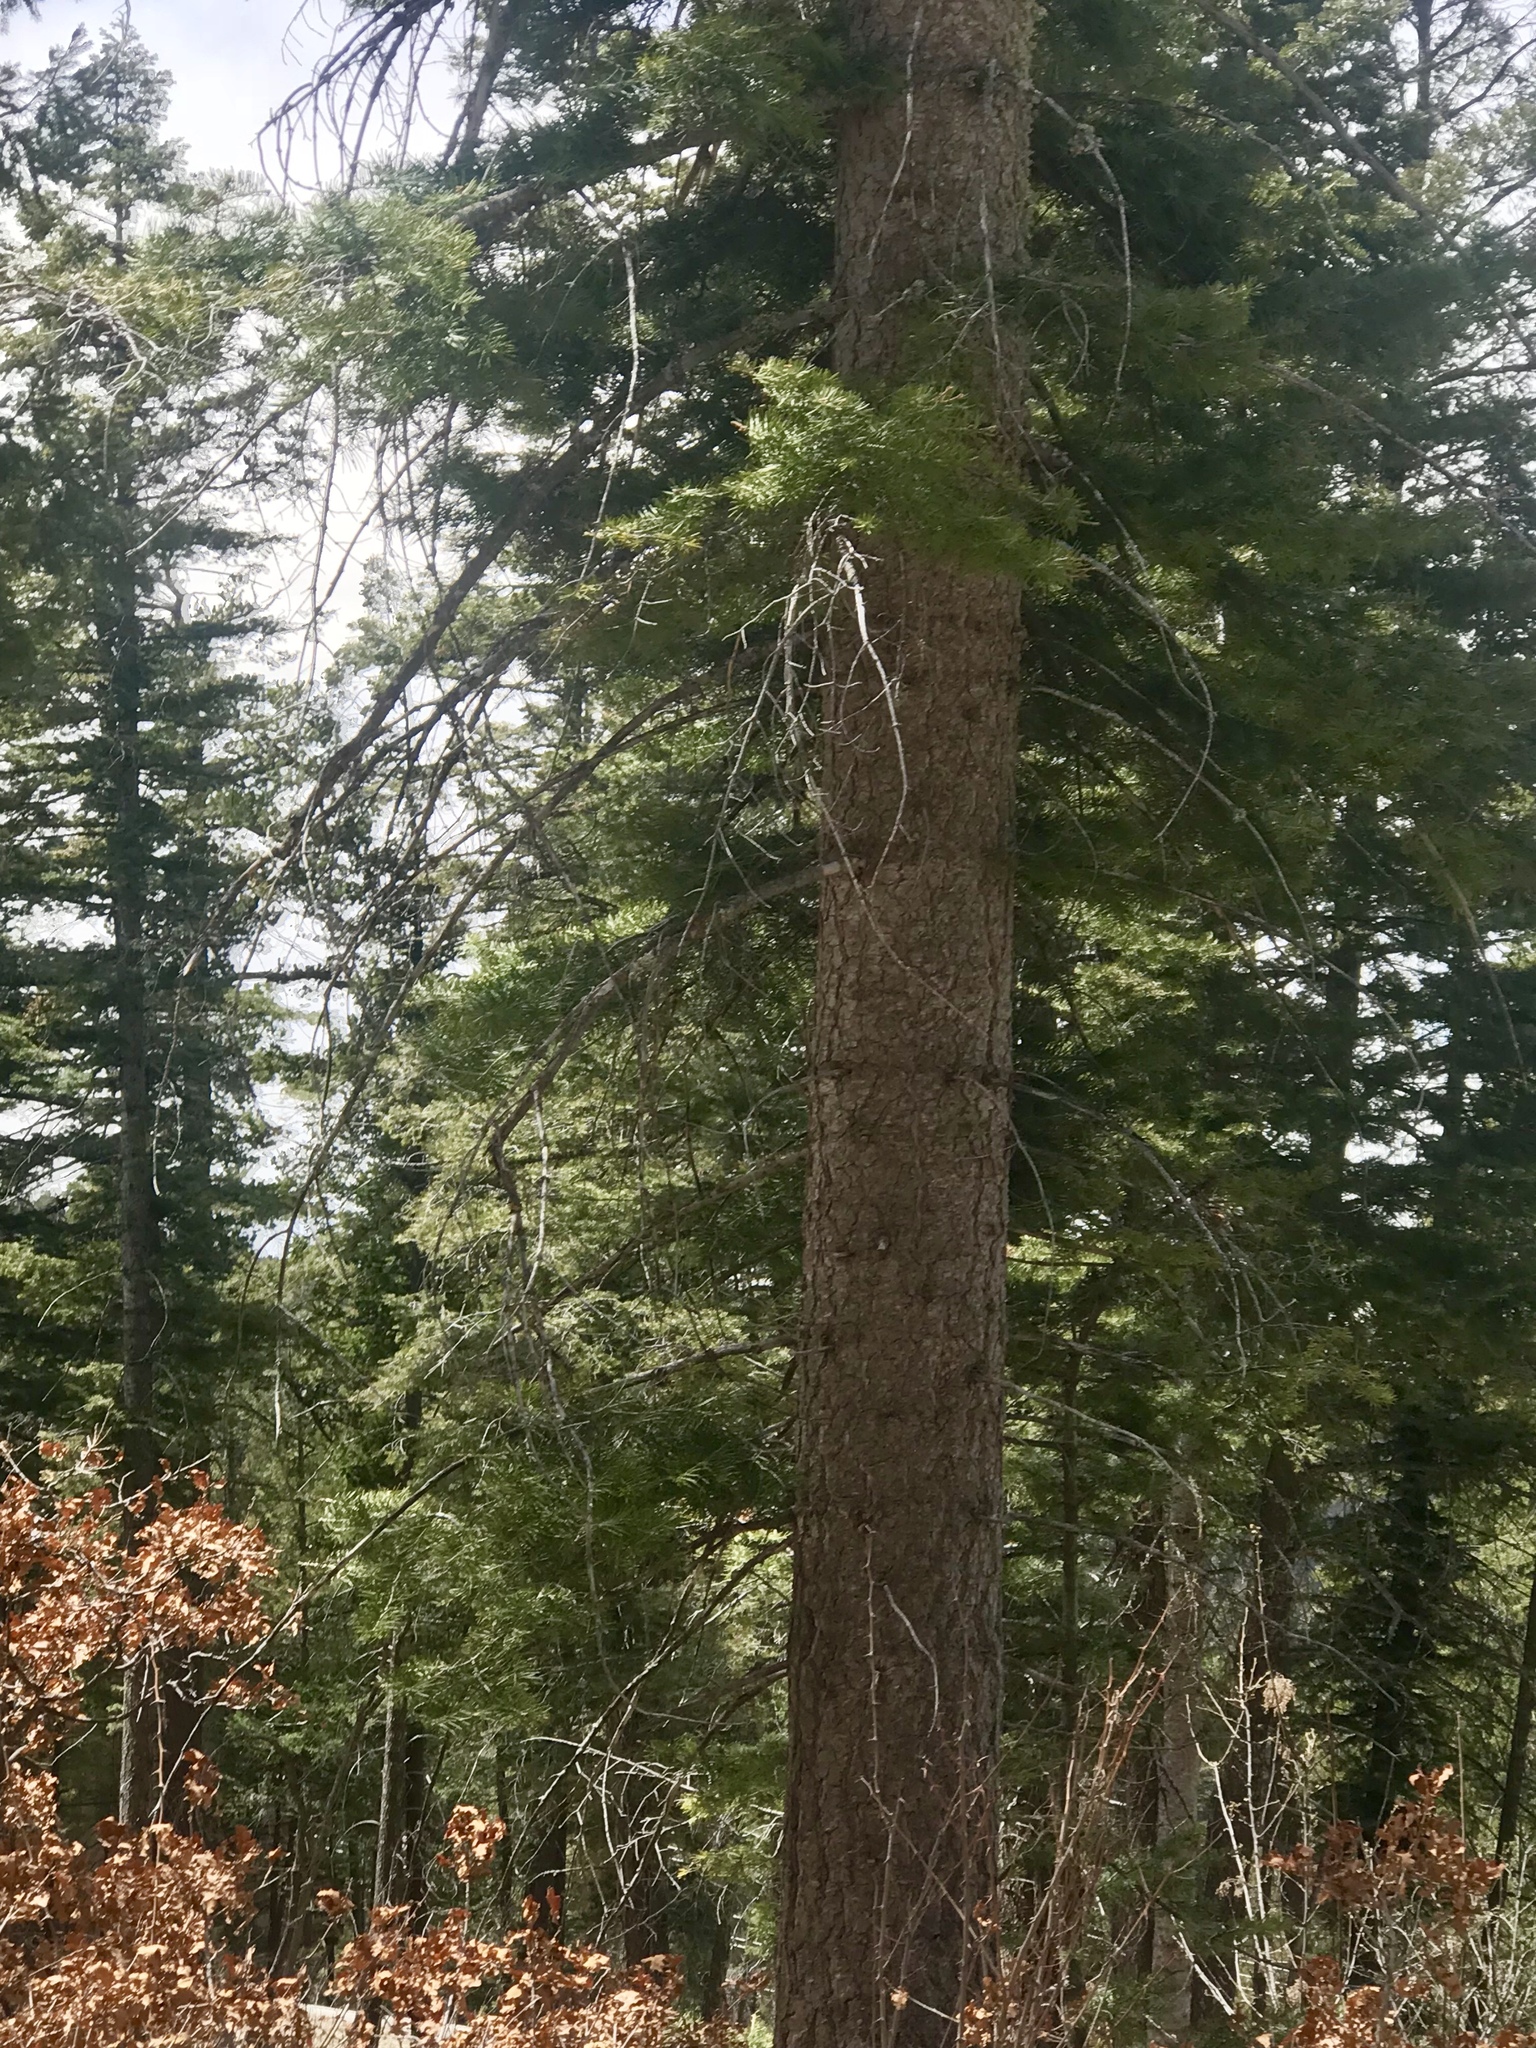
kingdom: Plantae
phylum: Tracheophyta
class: Pinopsida
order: Pinales
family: Pinaceae
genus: Abies
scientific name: Abies concolor
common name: Colorado fir
